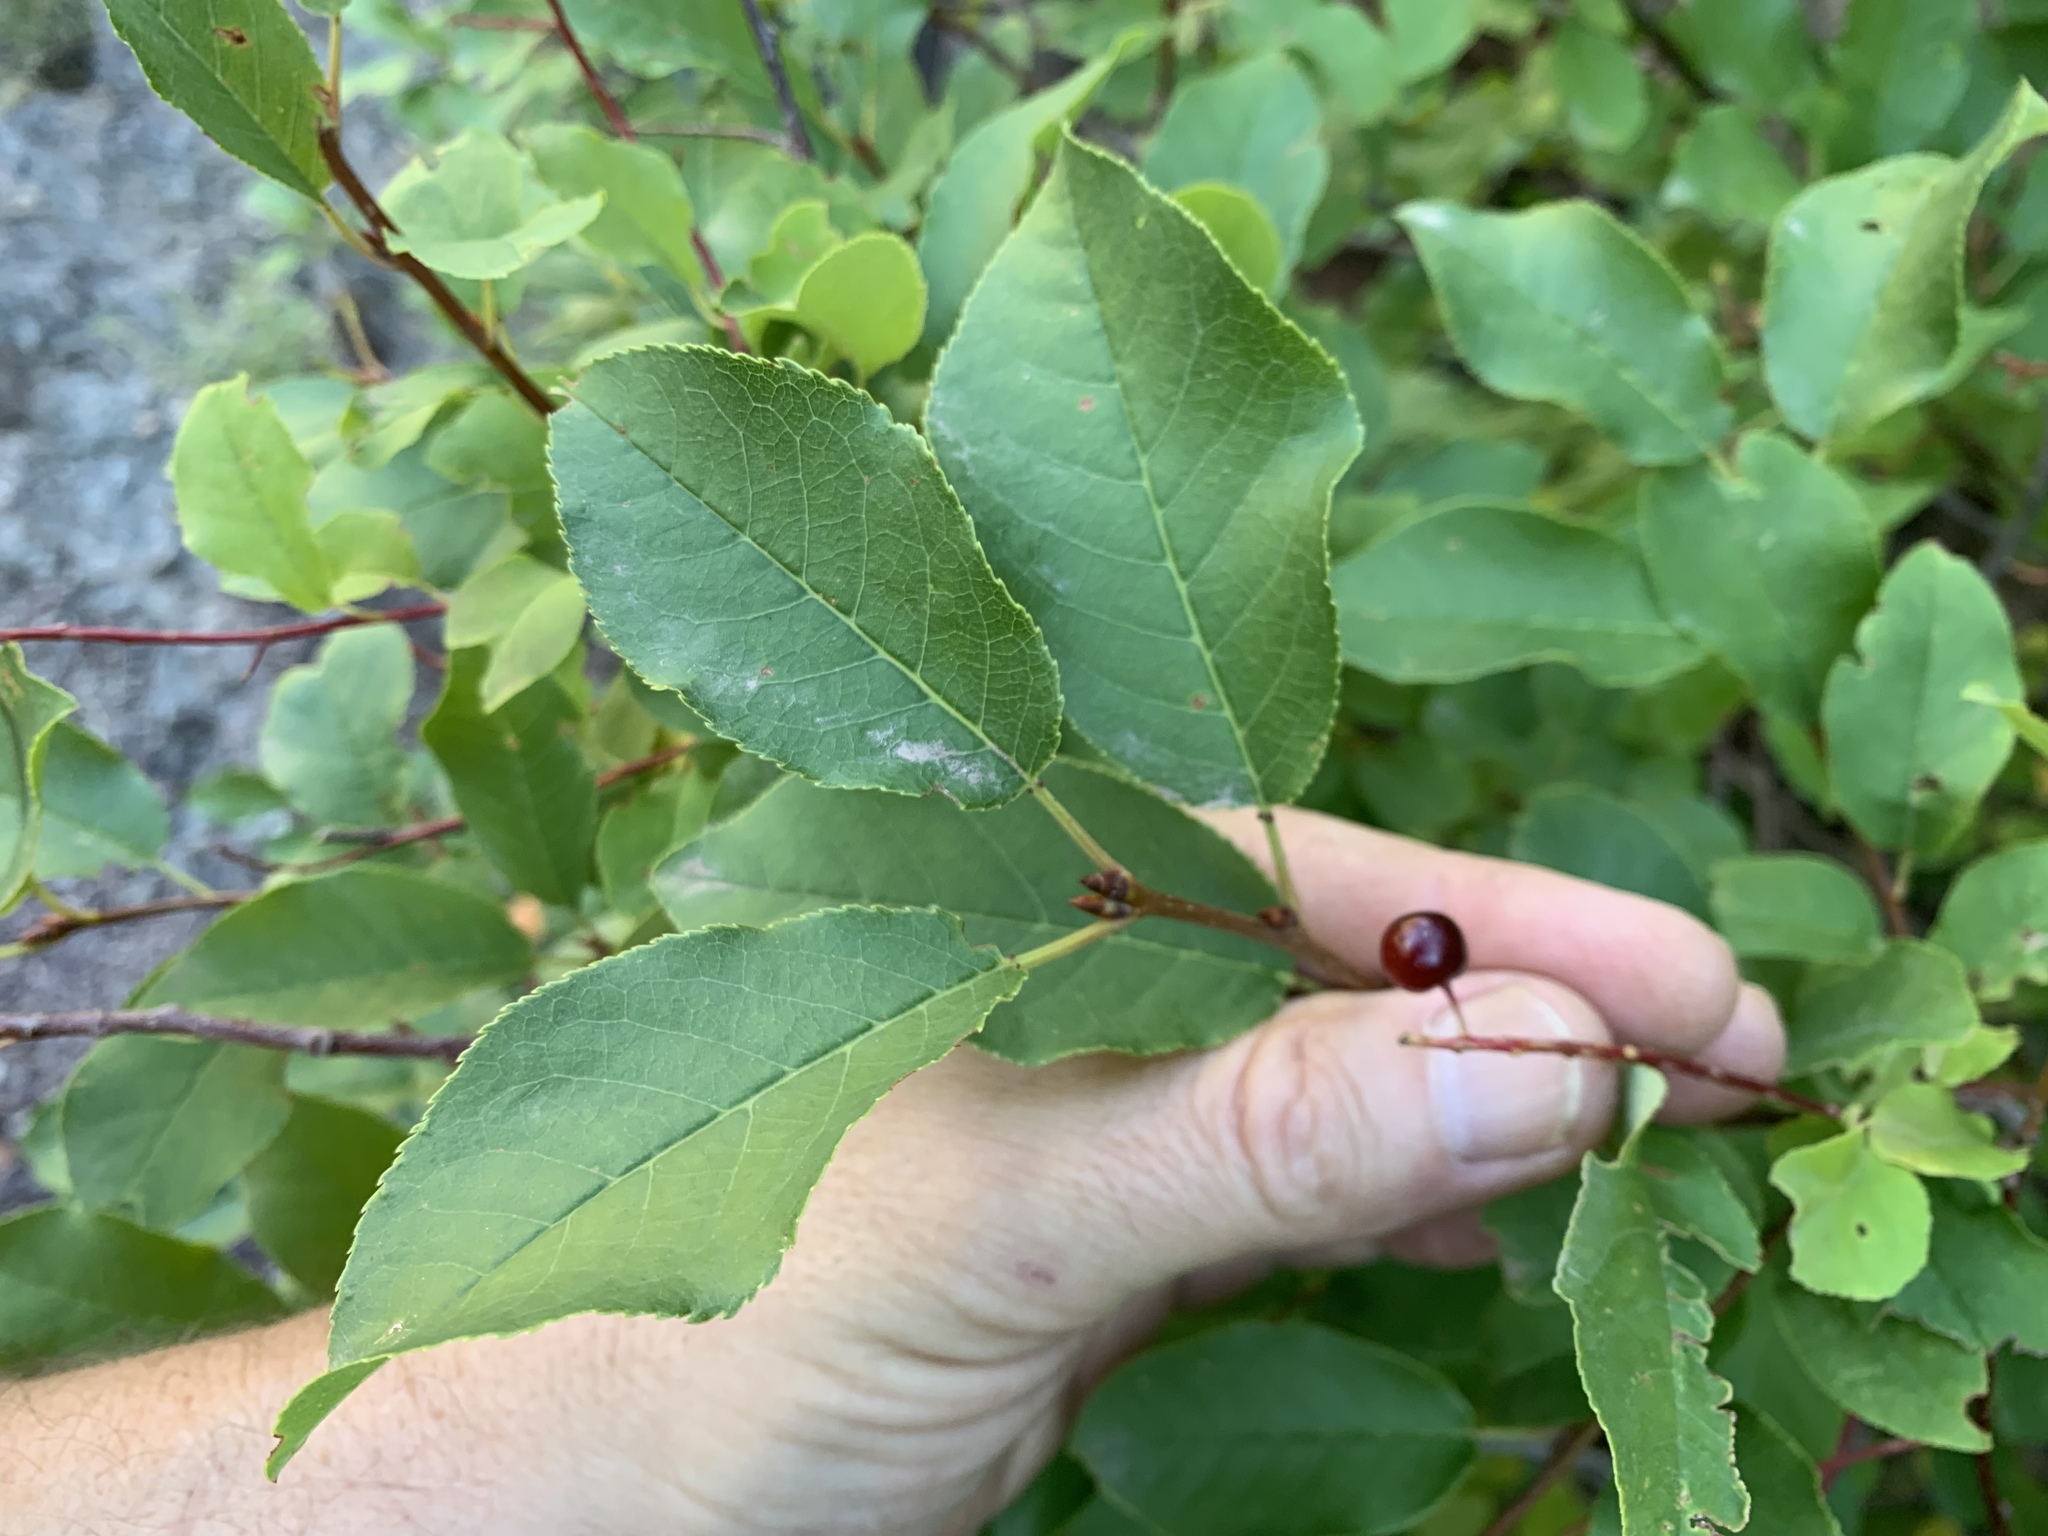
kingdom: Plantae
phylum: Tracheophyta
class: Magnoliopsida
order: Rosales
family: Rosaceae
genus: Prunus
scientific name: Prunus virginiana
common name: Chokecherry
